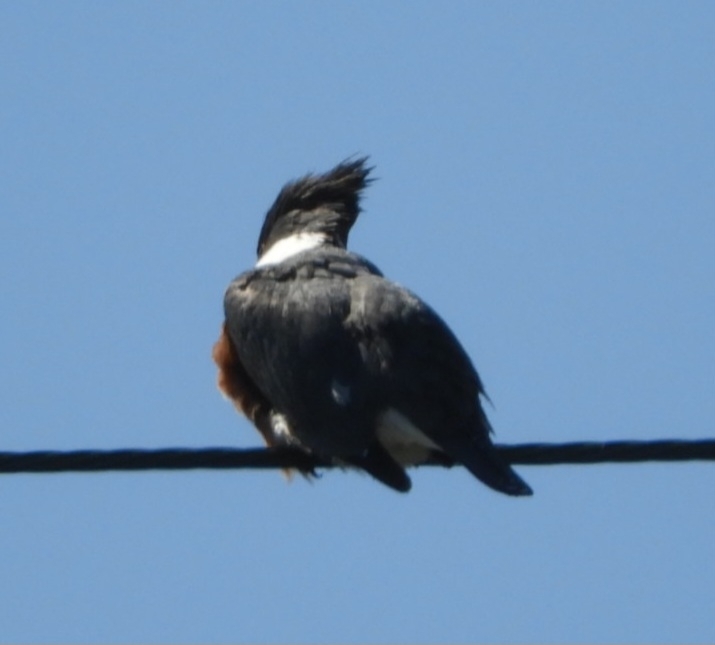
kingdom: Animalia
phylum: Chordata
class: Aves
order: Coraciiformes
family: Alcedinidae
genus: Megaceryle
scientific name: Megaceryle alcyon
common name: Belted kingfisher
